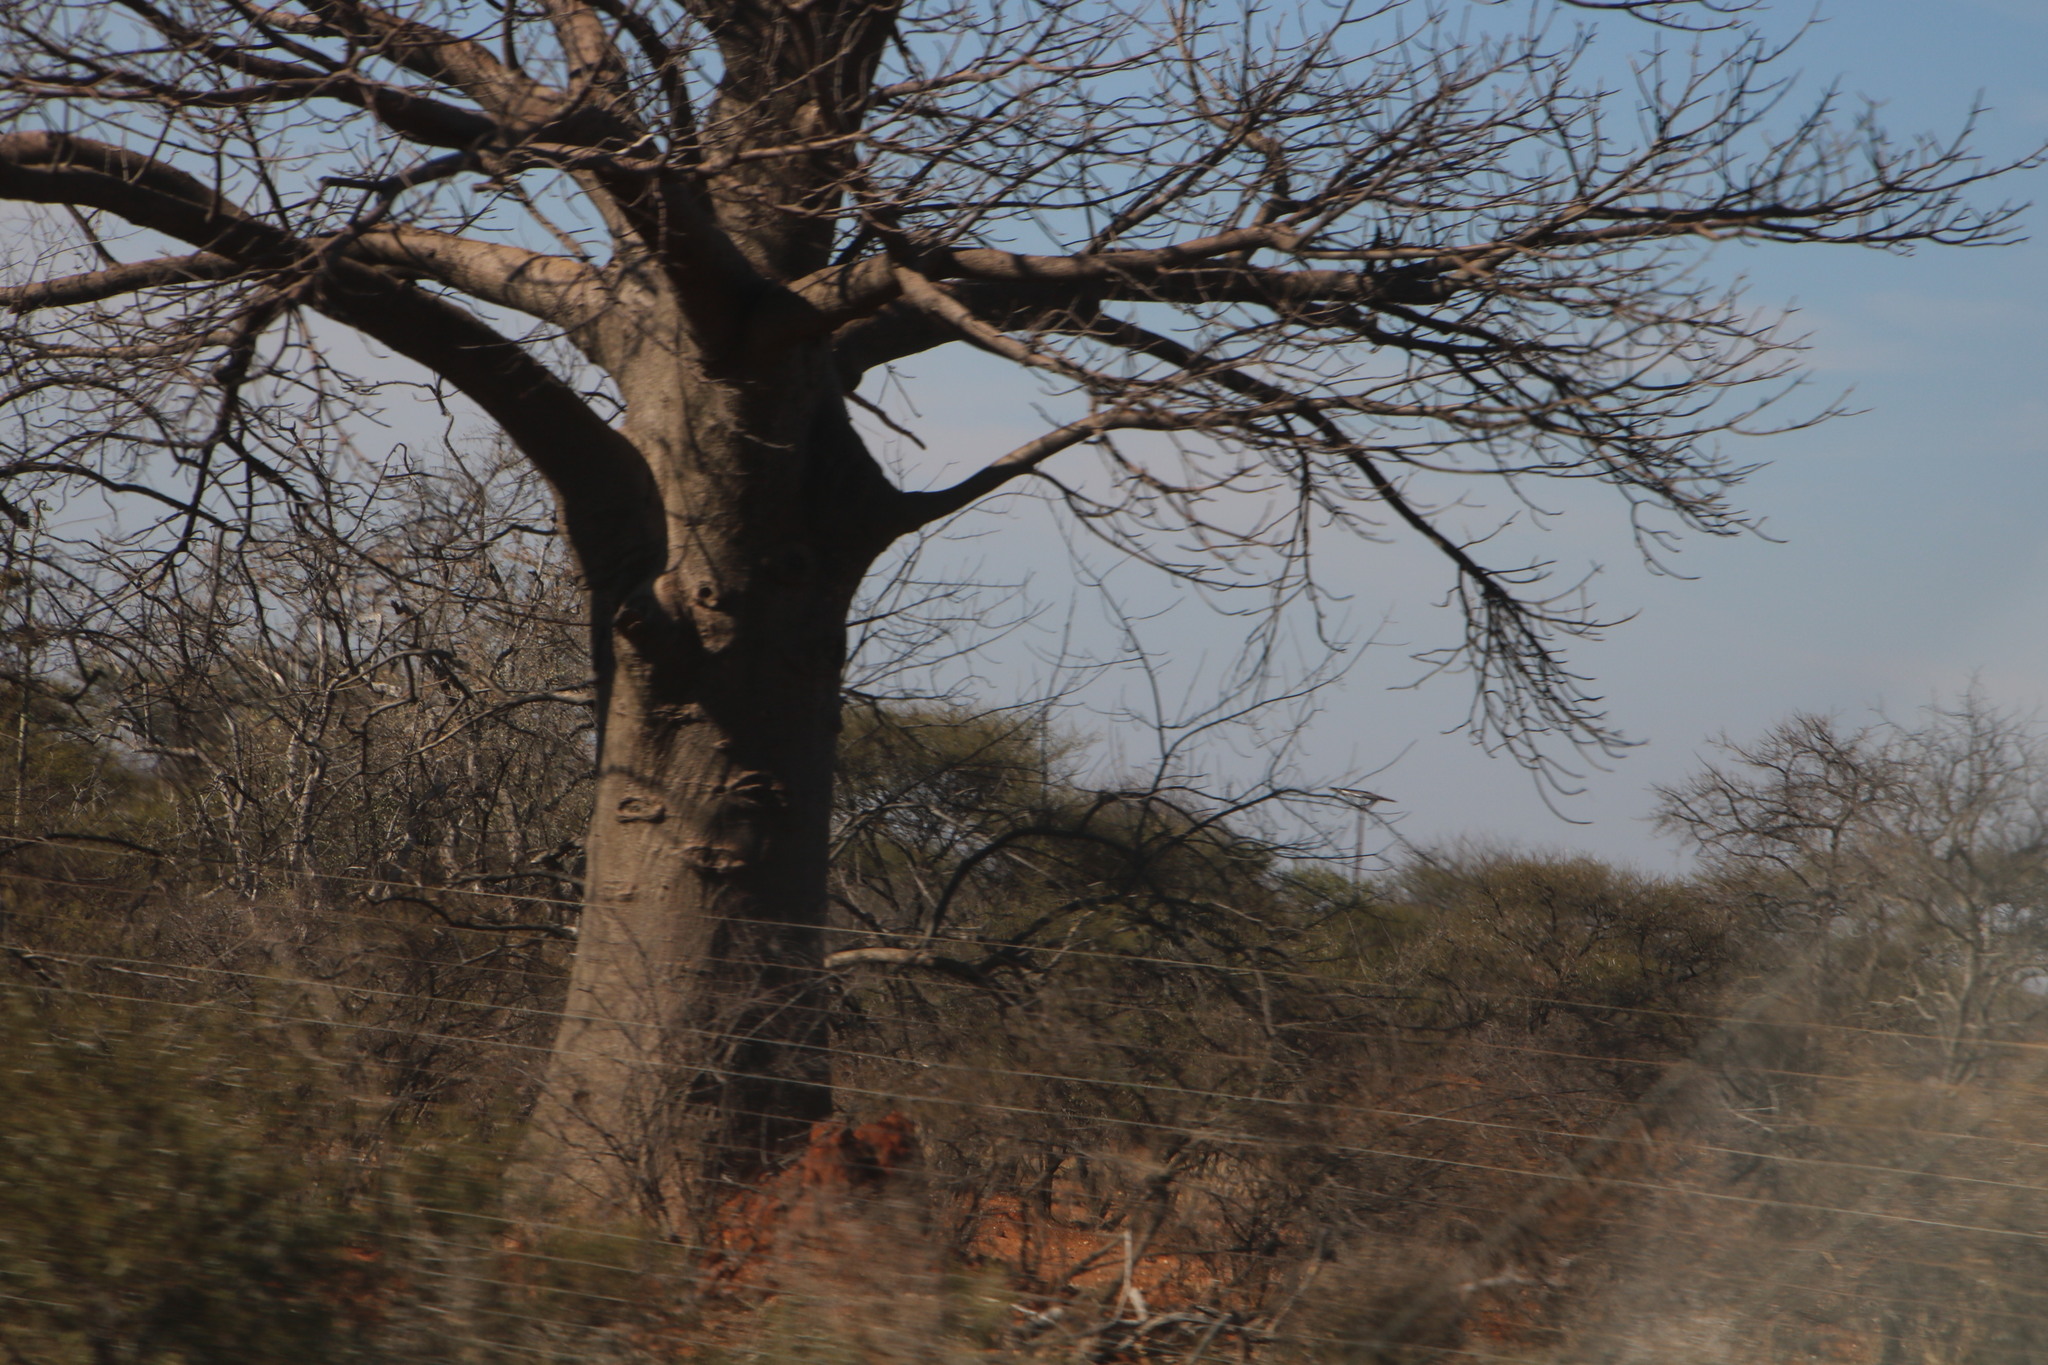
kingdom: Plantae
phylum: Tracheophyta
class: Magnoliopsida
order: Malvales
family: Malvaceae
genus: Adansonia
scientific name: Adansonia digitata
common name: Dead-rat-tree
